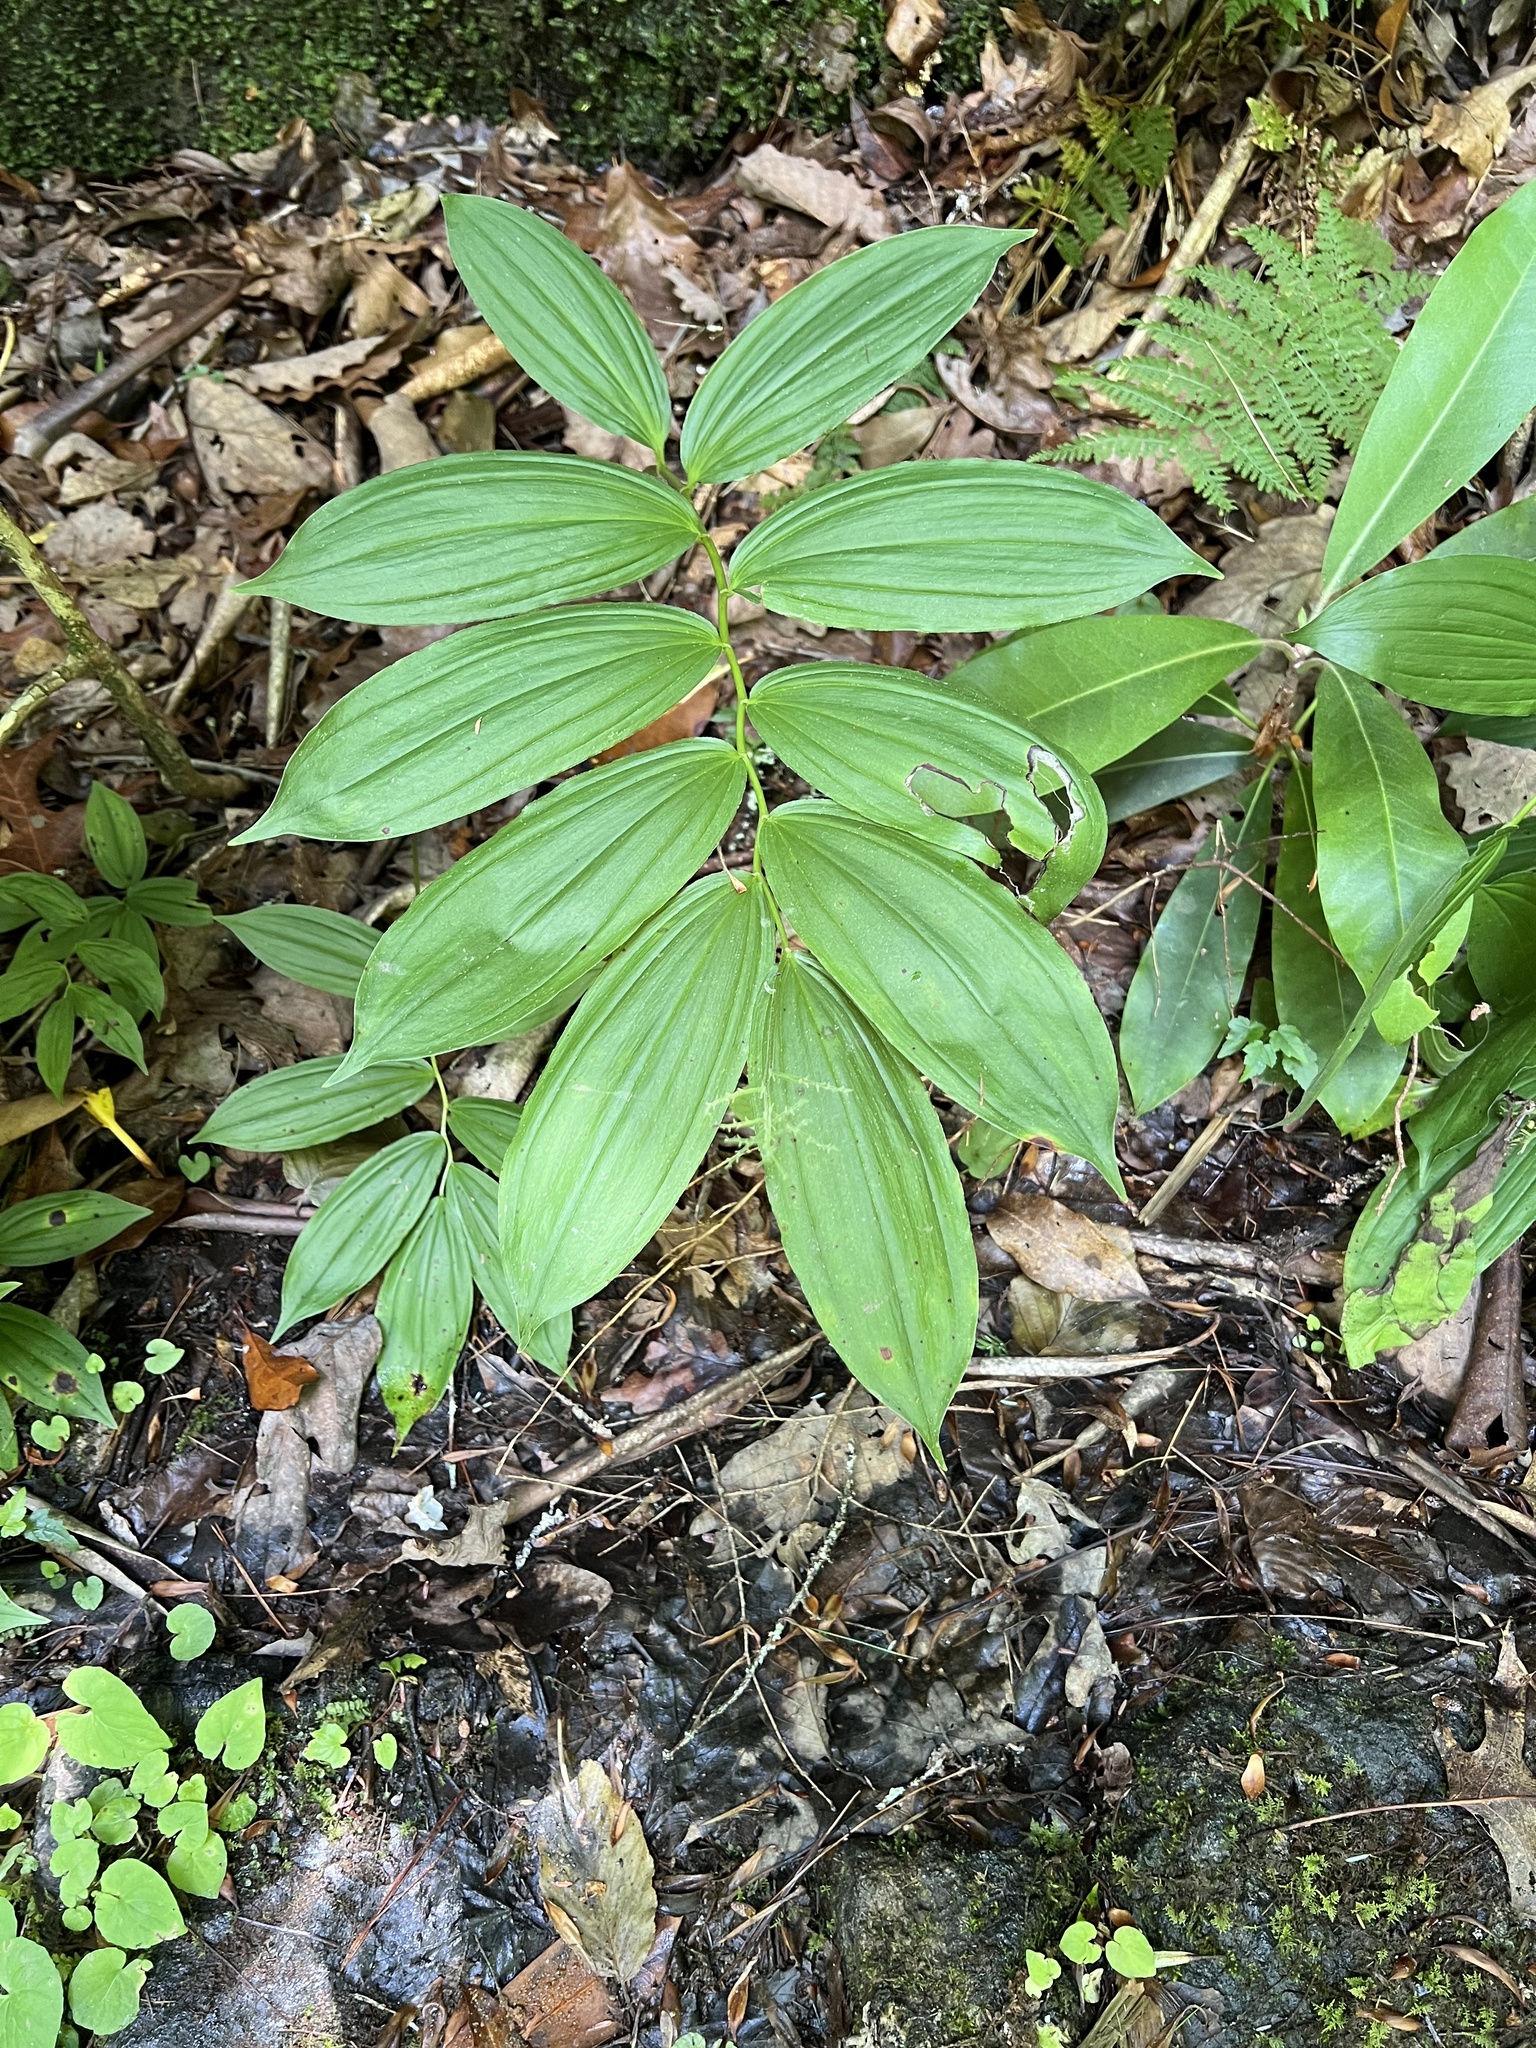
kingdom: Plantae
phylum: Tracheophyta
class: Liliopsida
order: Asparagales
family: Asparagaceae
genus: Maianthemum
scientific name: Maianthemum racemosum
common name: False spikenard
